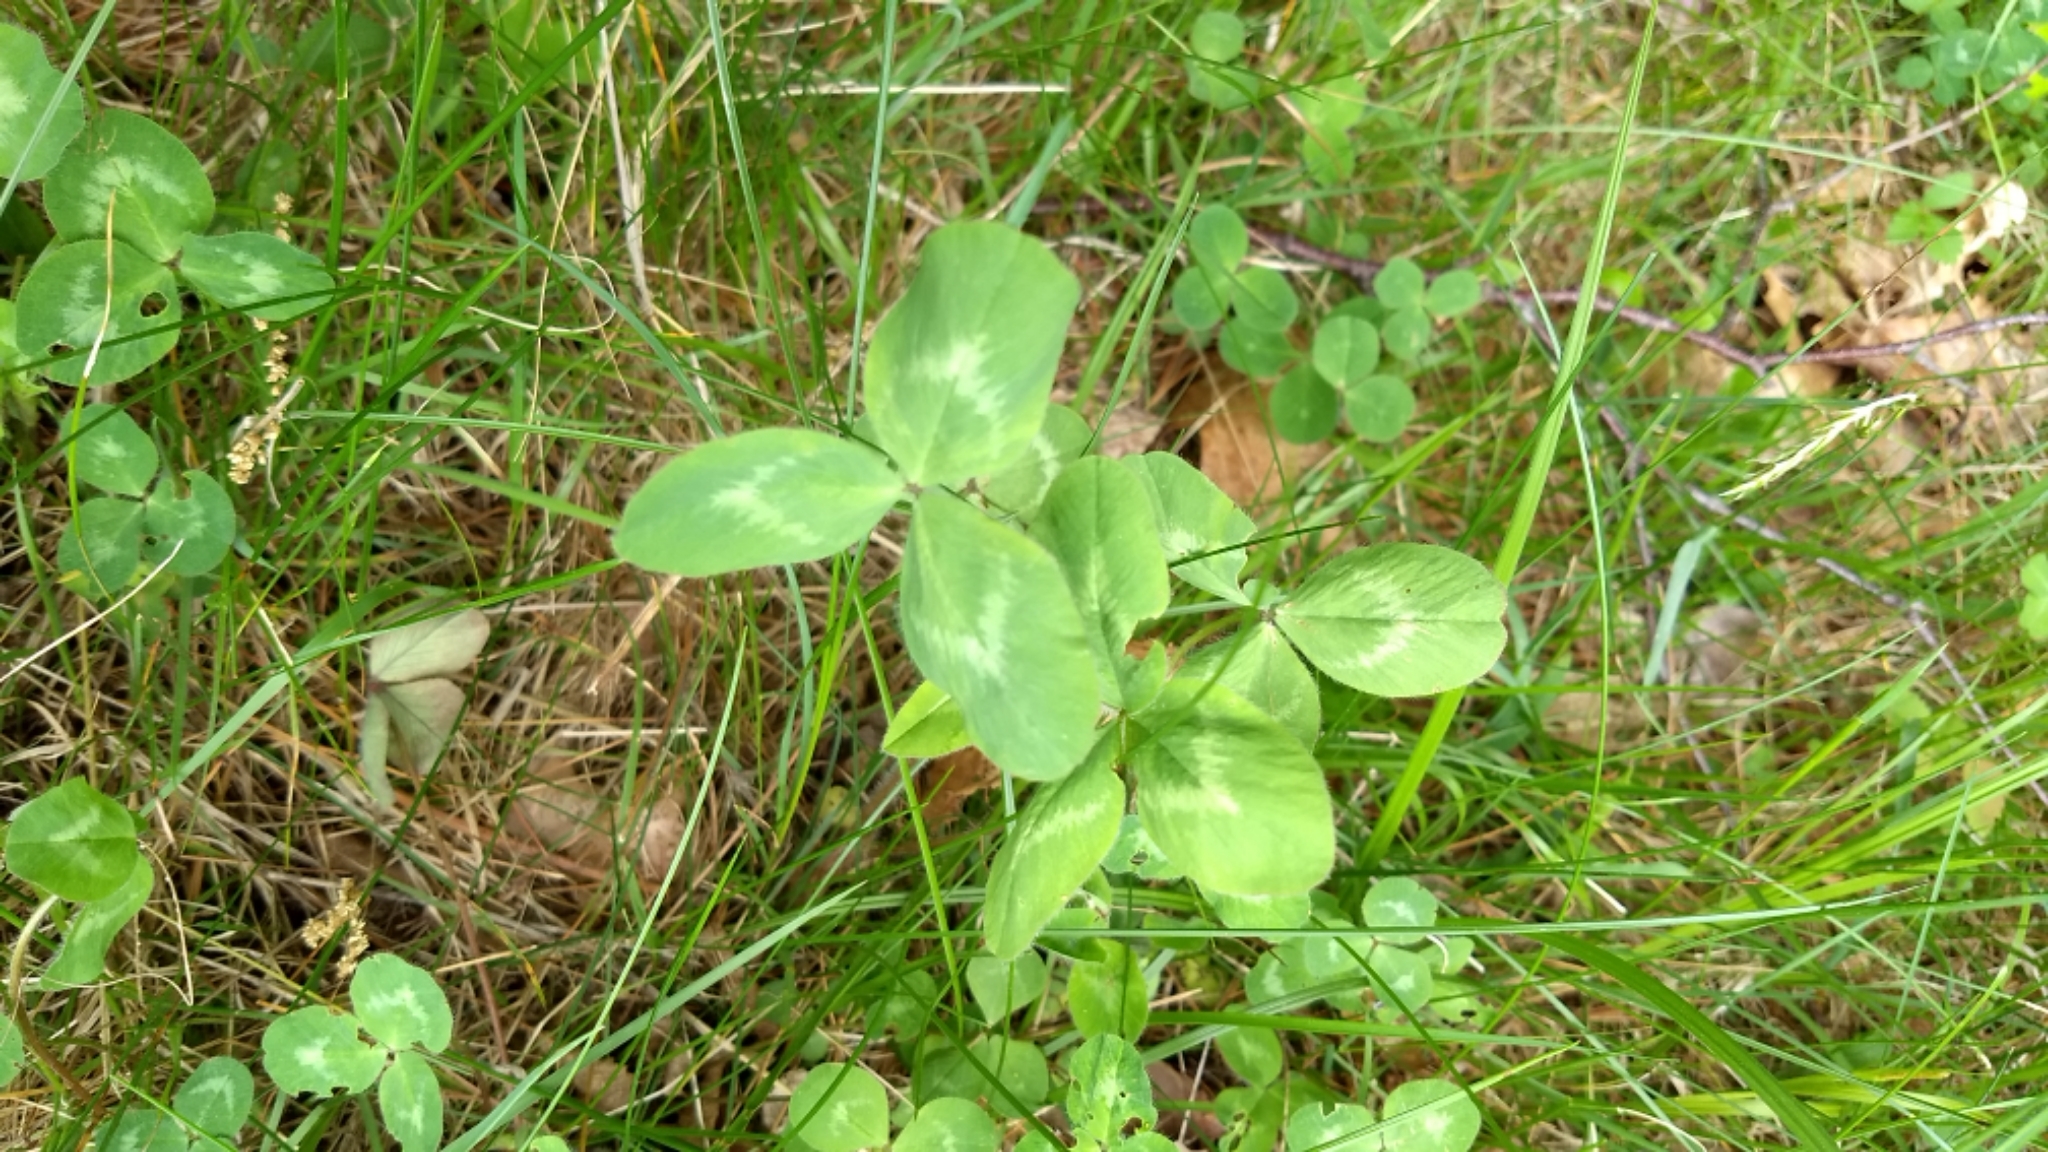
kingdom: Plantae
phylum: Tracheophyta
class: Magnoliopsida
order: Fabales
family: Fabaceae
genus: Trifolium
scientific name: Trifolium pratense
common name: Red clover
